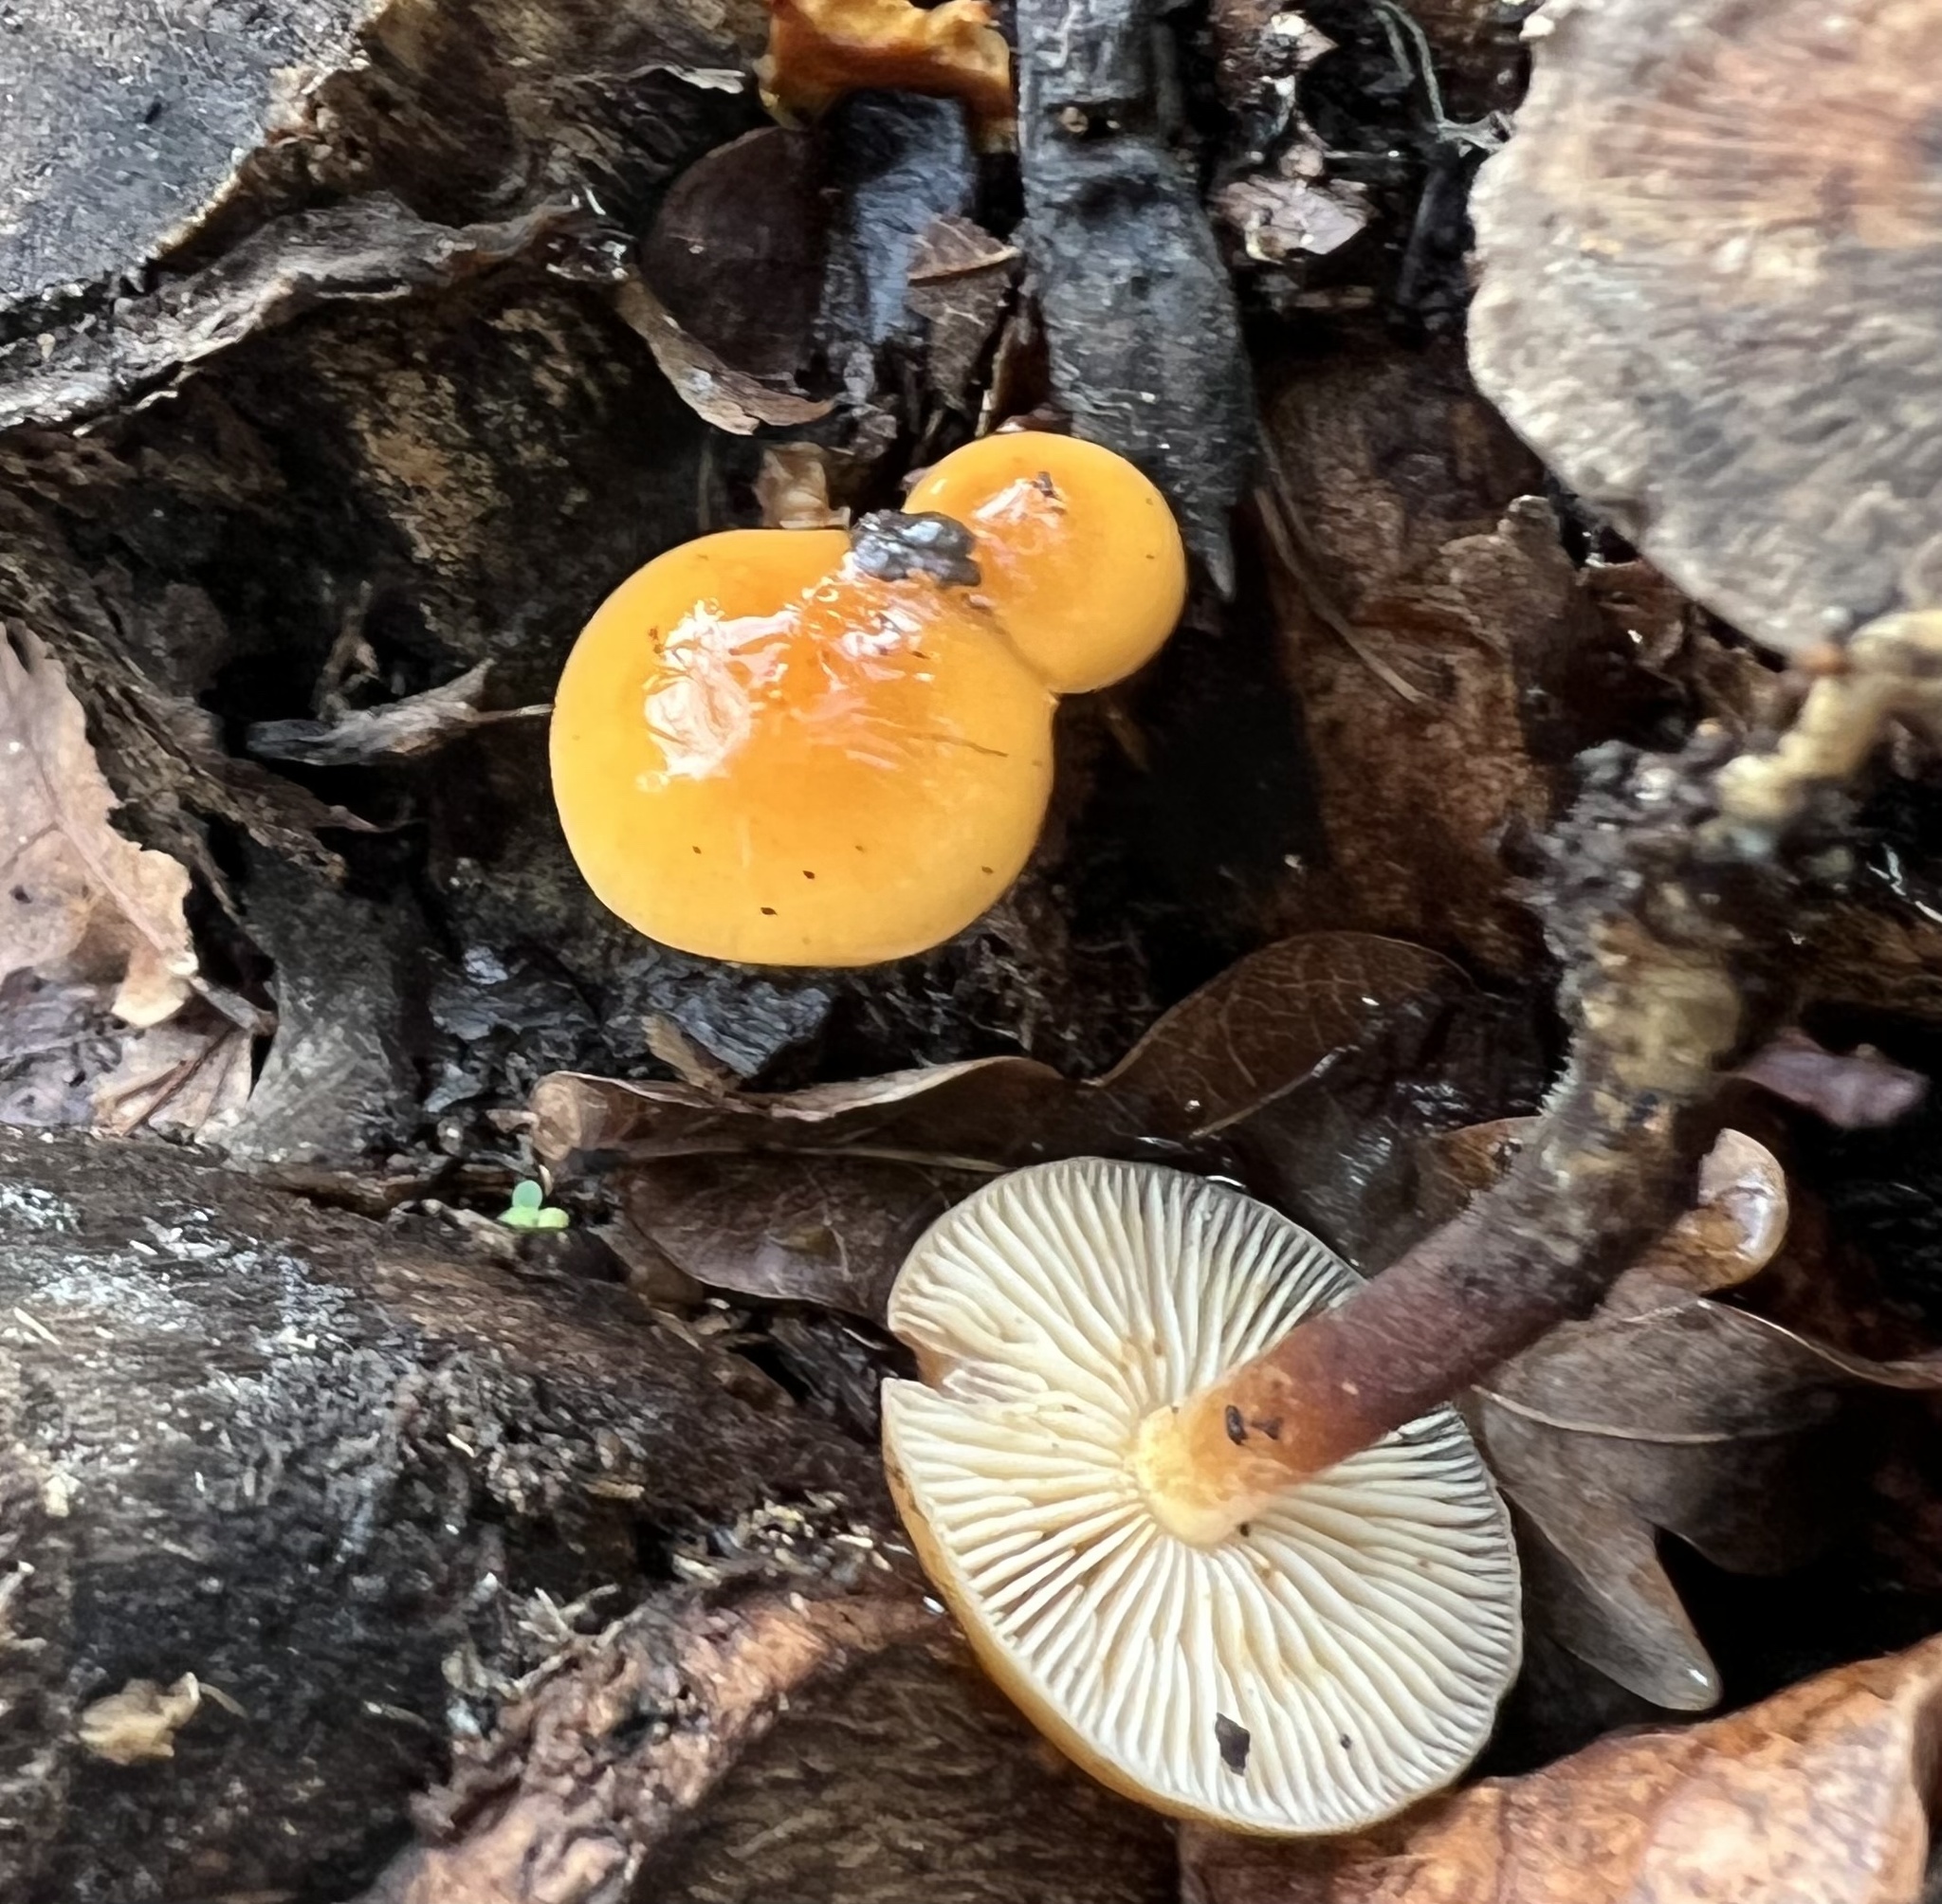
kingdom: Fungi
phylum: Basidiomycota
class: Agaricomycetes
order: Agaricales
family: Physalacriaceae
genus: Flammulina
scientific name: Flammulina velutipes
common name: Velvet shank
